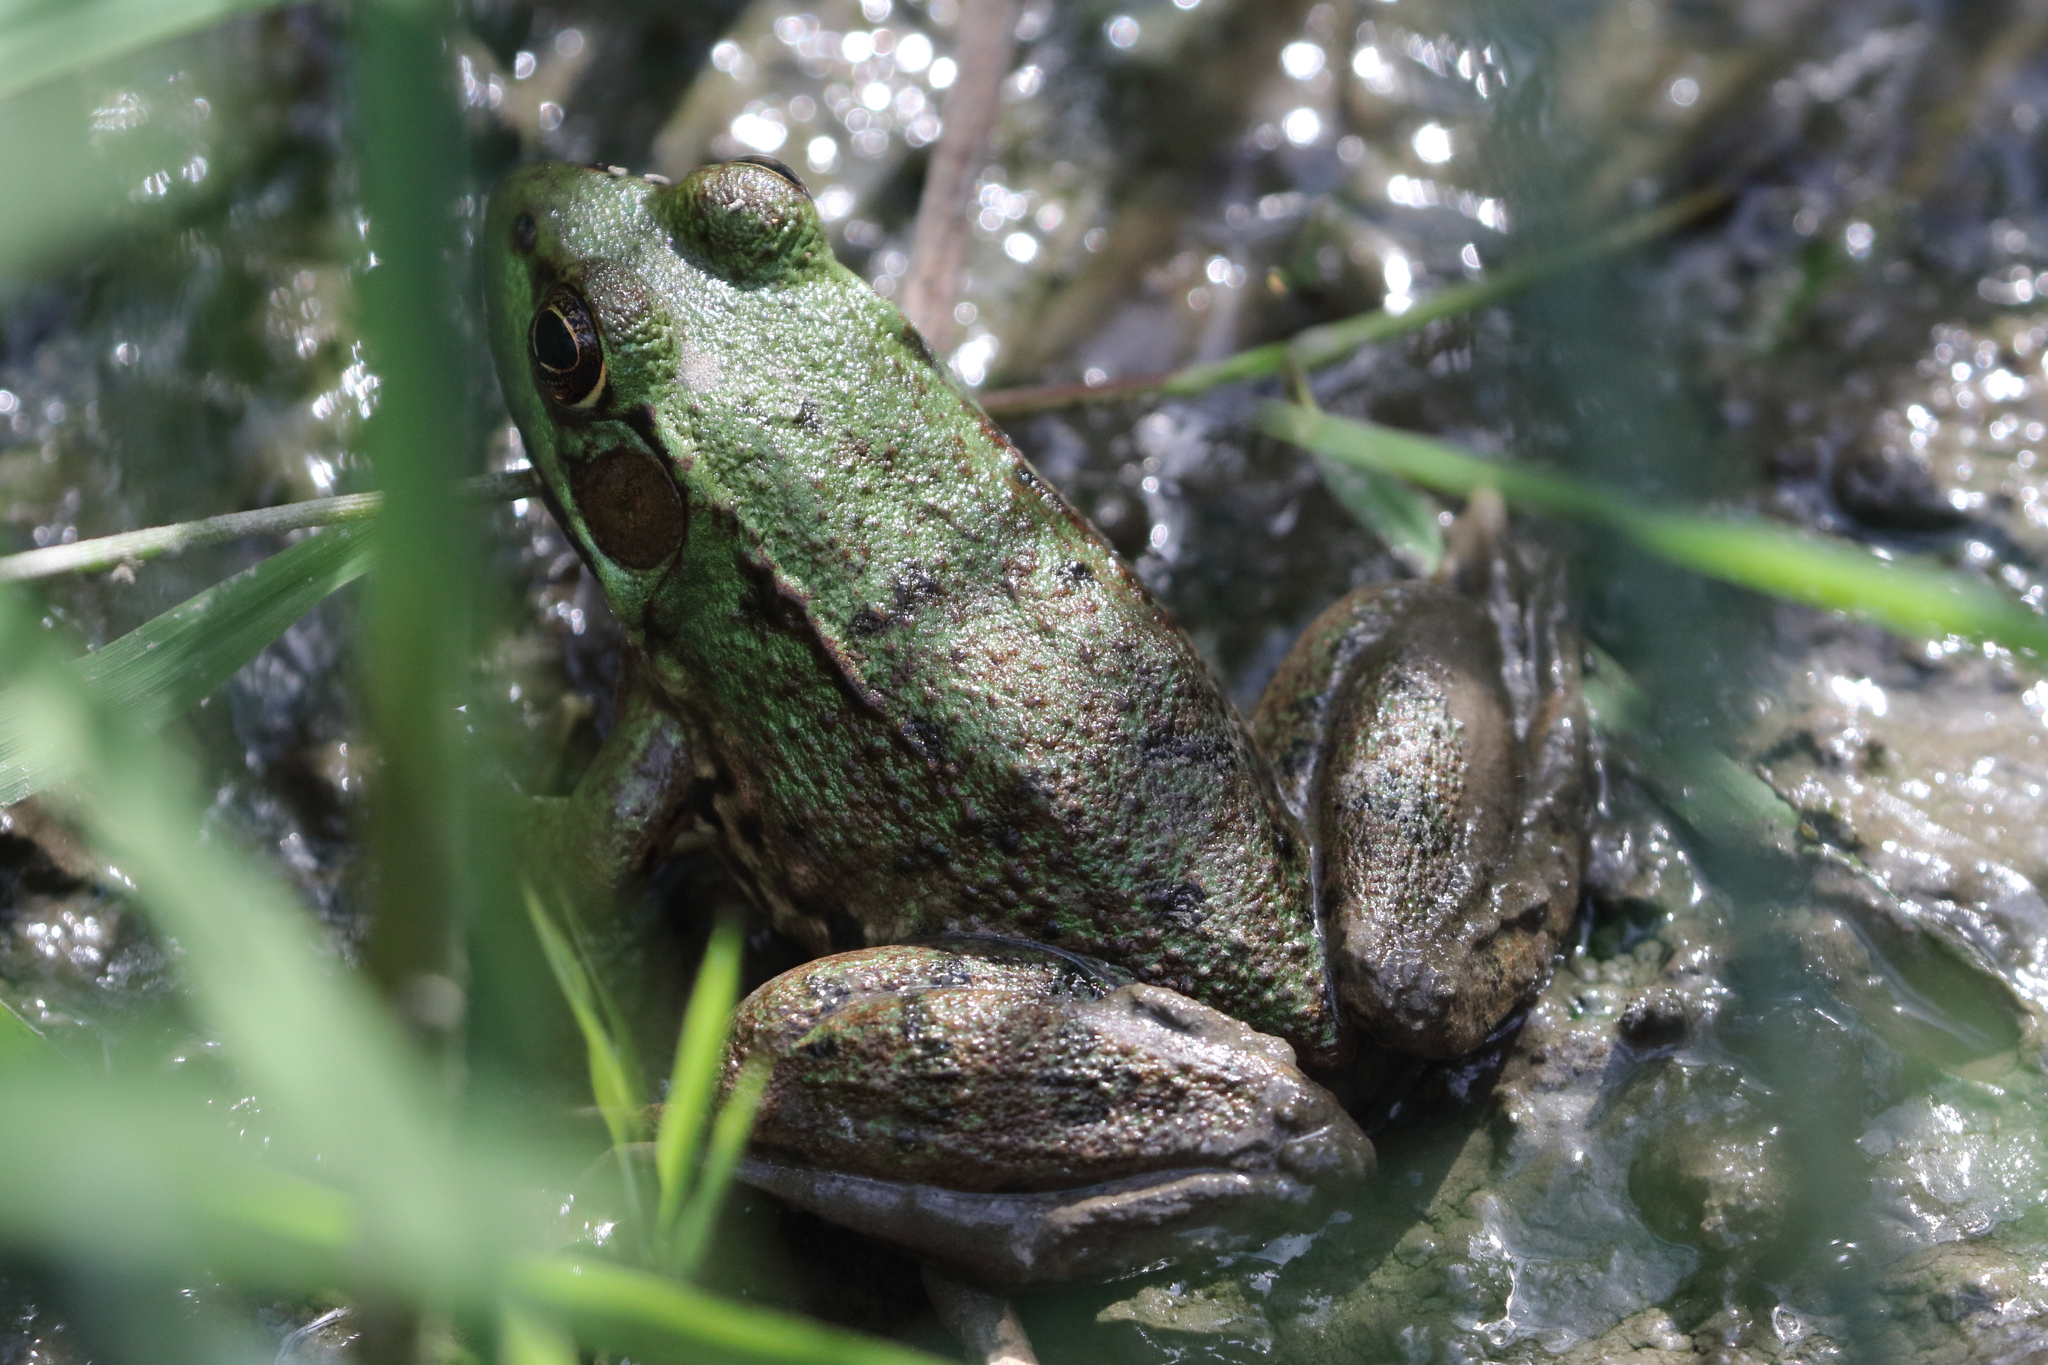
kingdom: Animalia
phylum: Chordata
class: Amphibia
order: Anura
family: Ranidae
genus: Lithobates
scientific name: Lithobates clamitans
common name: Green frog
